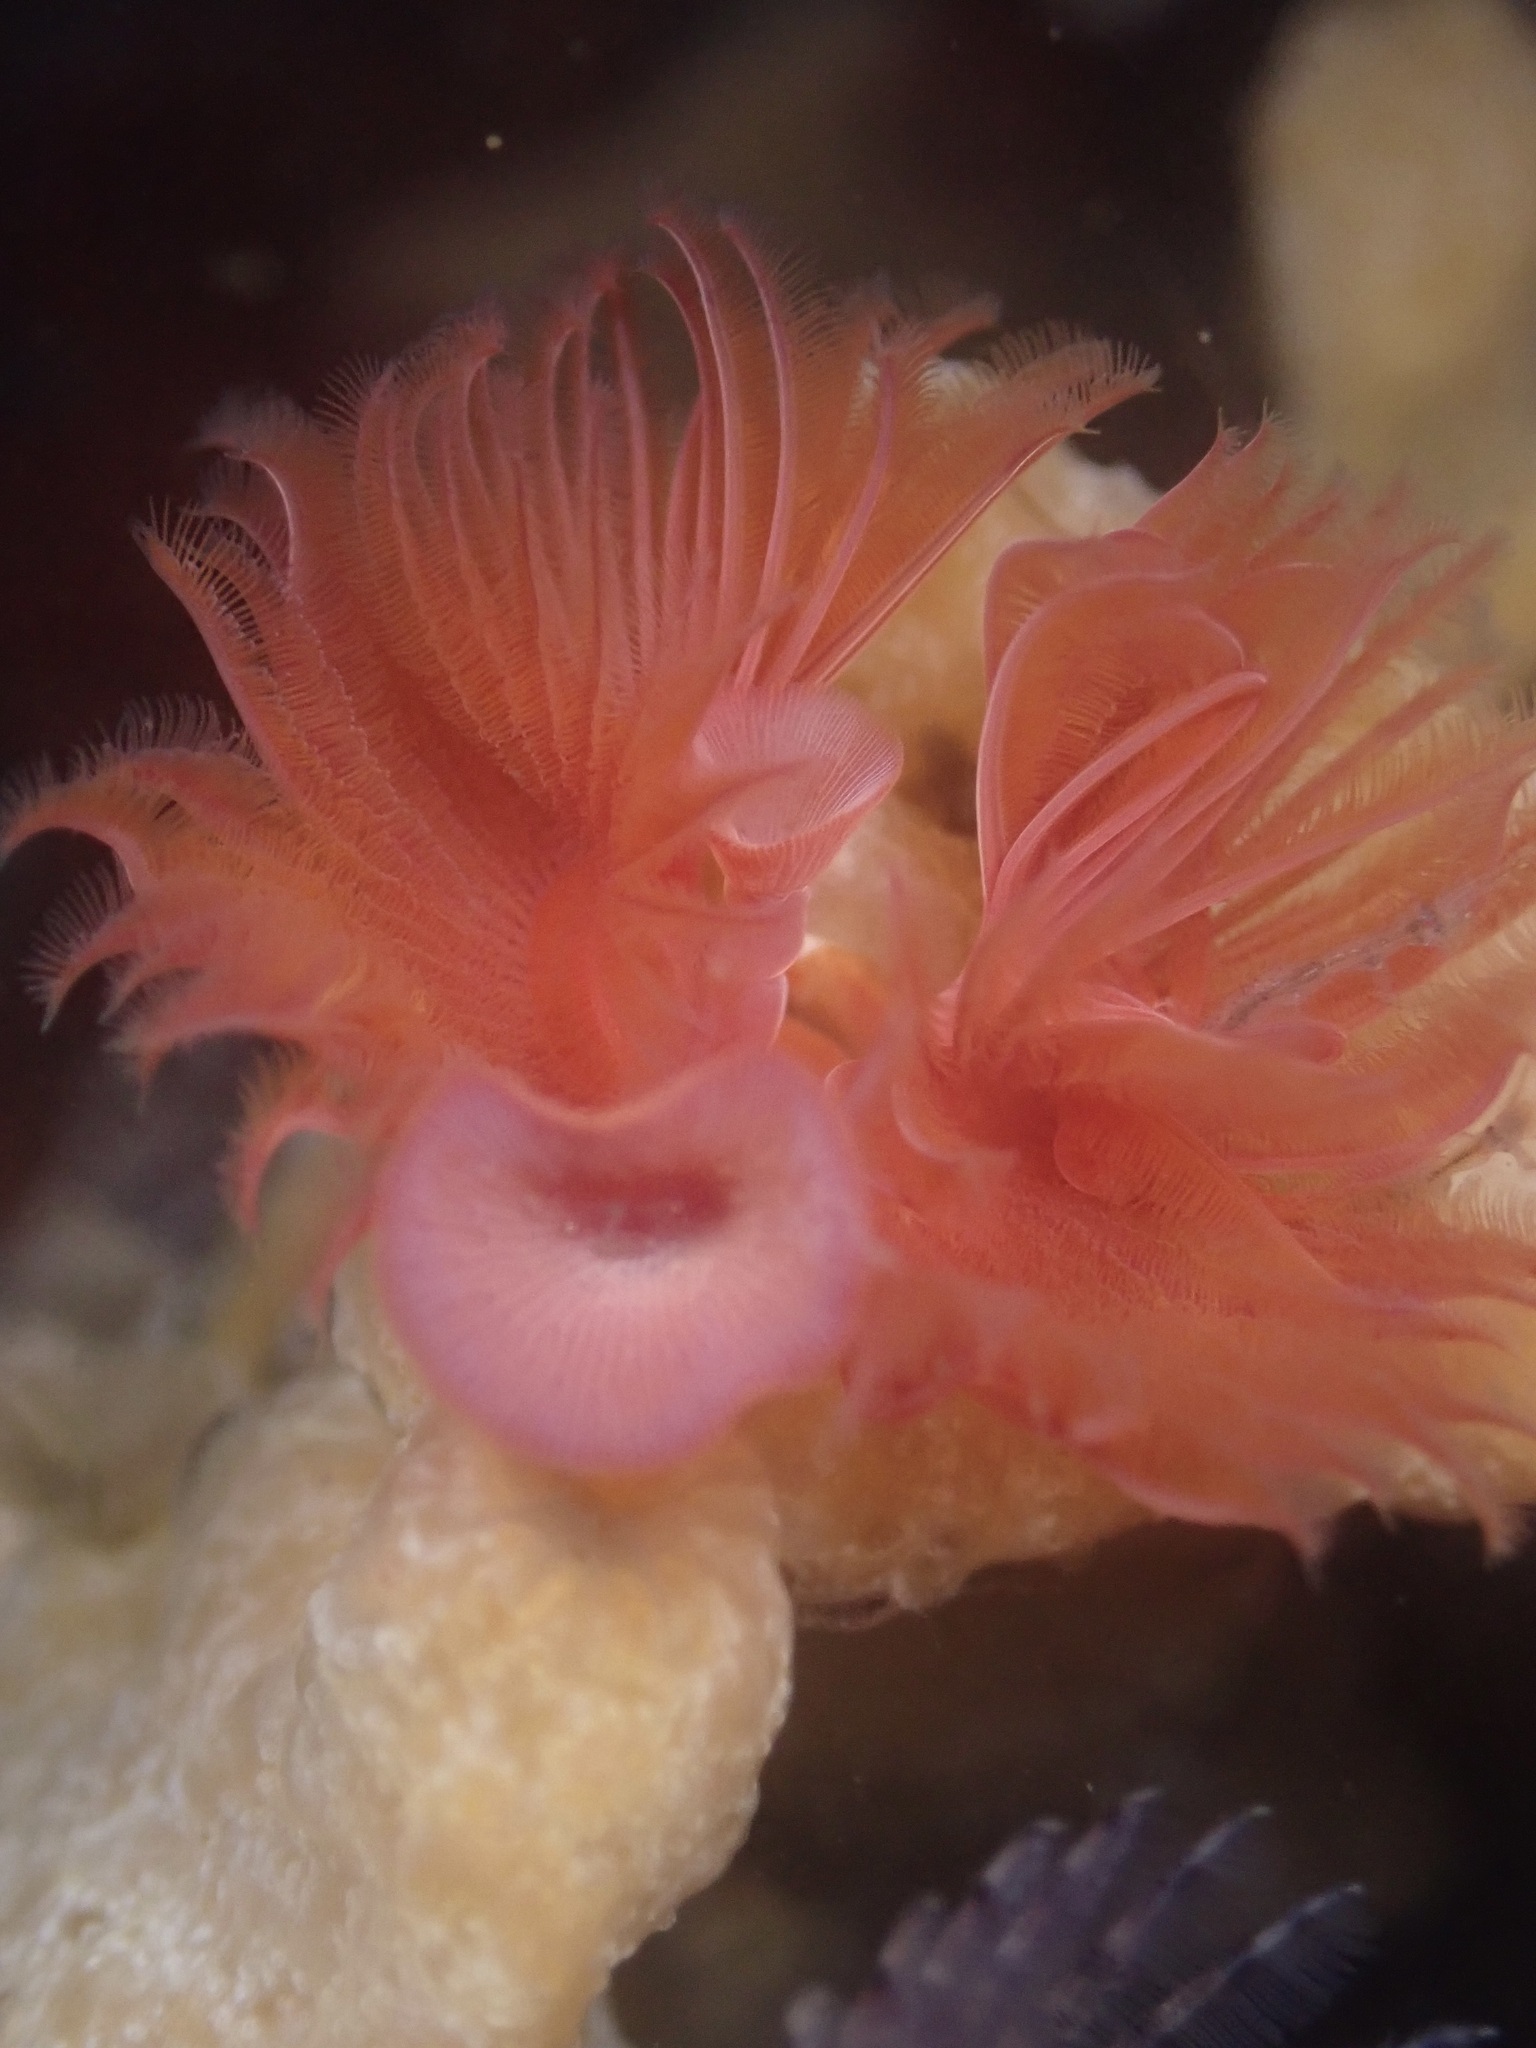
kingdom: Animalia
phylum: Annelida
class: Polychaeta
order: Sabellida
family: Serpulidae
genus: Serpula
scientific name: Serpula columbiana
